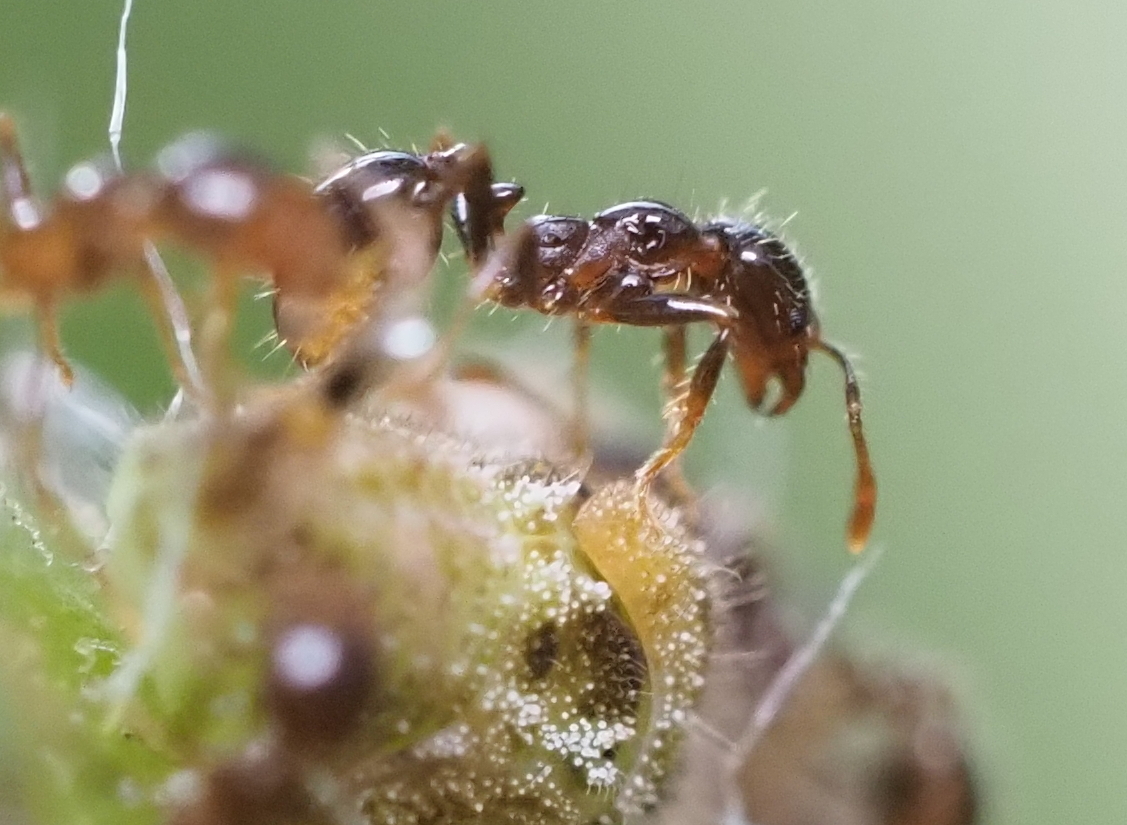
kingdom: Animalia
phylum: Arthropoda
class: Insecta
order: Hymenoptera
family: Formicidae
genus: Solenopsis
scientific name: Solenopsis geminata
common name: Tropical fire ant
